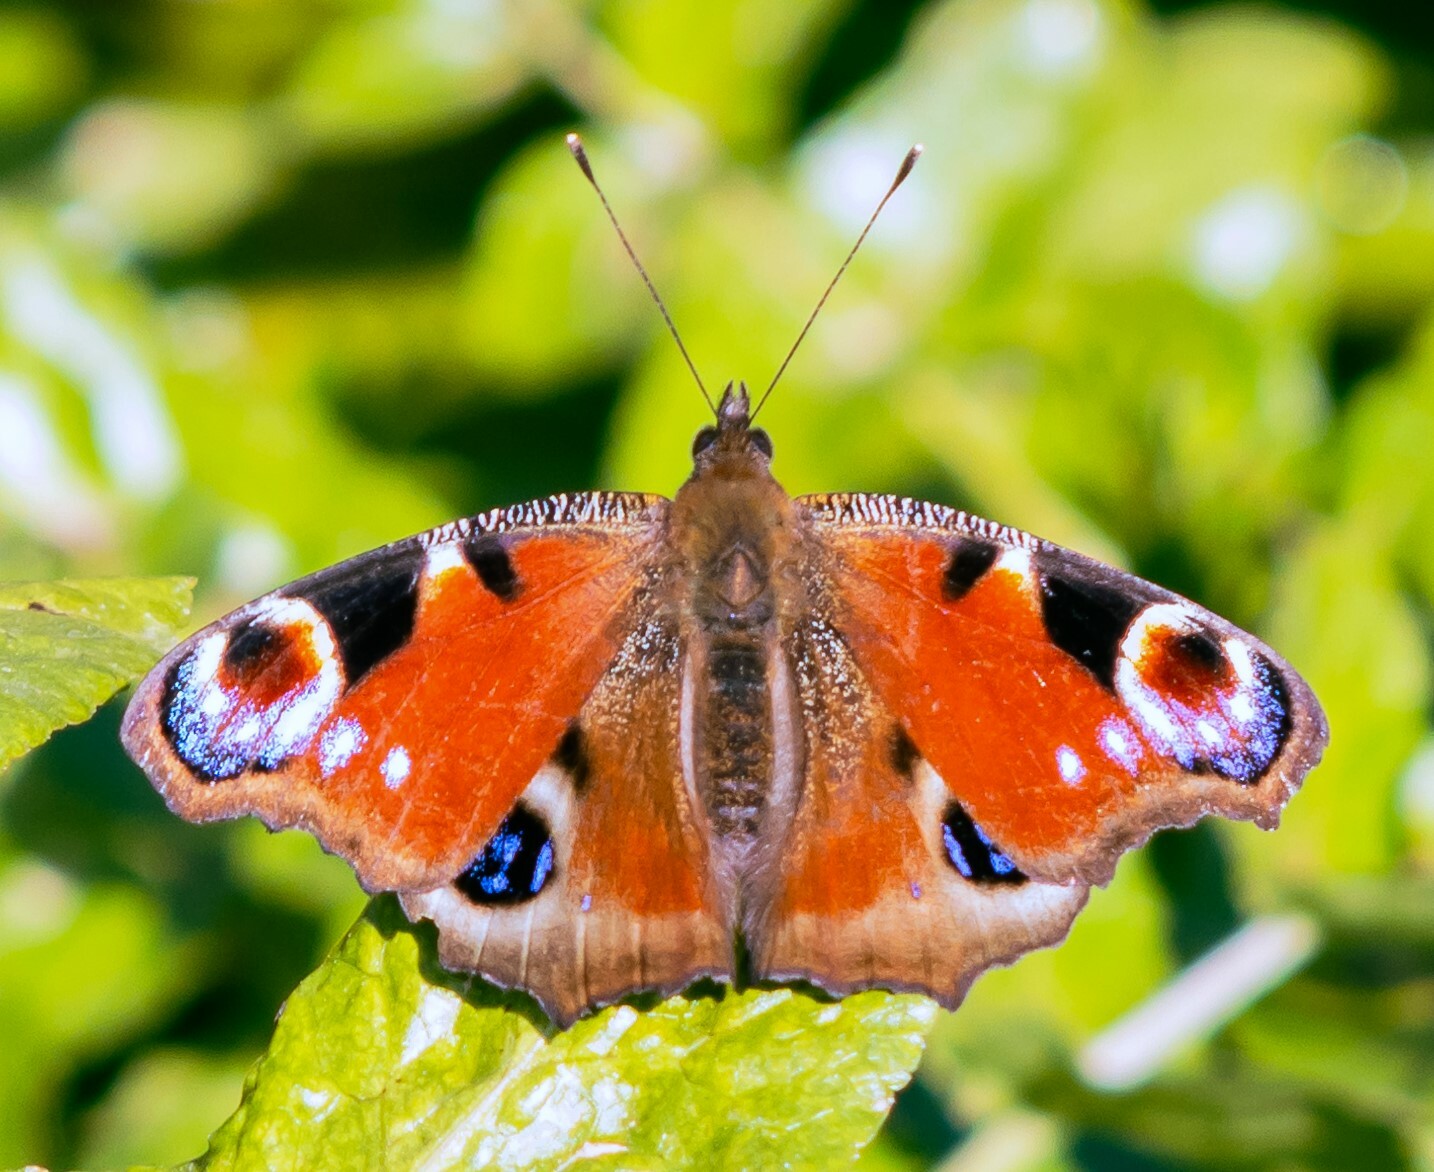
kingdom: Animalia
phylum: Arthropoda
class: Insecta
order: Lepidoptera
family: Nymphalidae
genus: Aglais
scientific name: Aglais io
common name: Peacock
